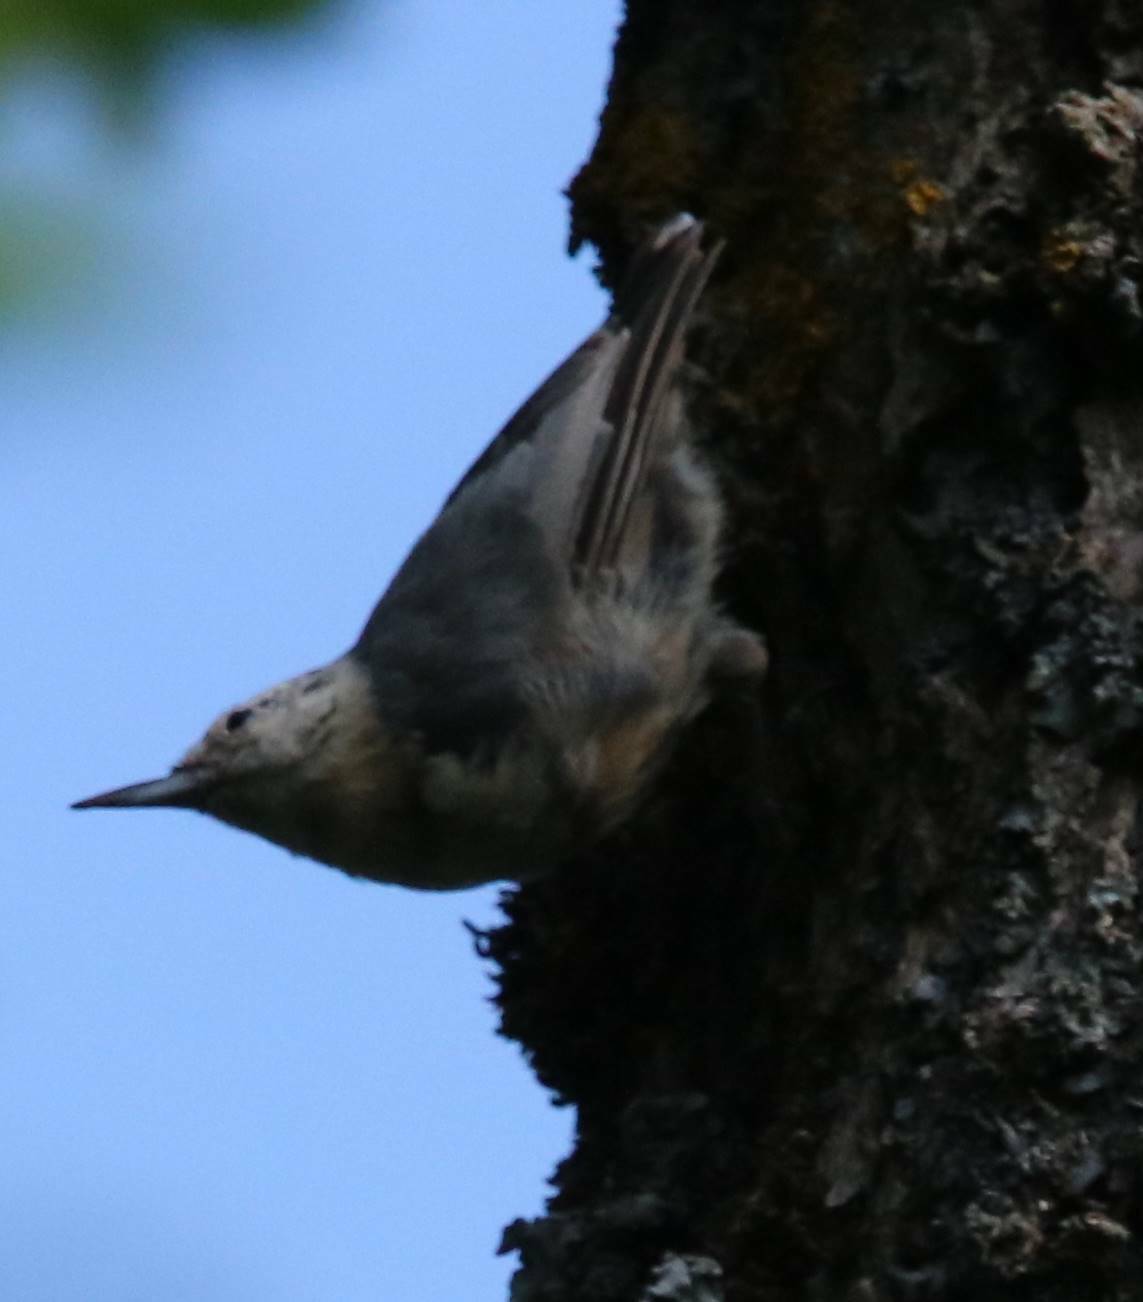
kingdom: Animalia
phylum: Chordata
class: Aves
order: Passeriformes
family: Sittidae
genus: Sitta
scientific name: Sitta ledanti
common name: Algerian nuthatch
